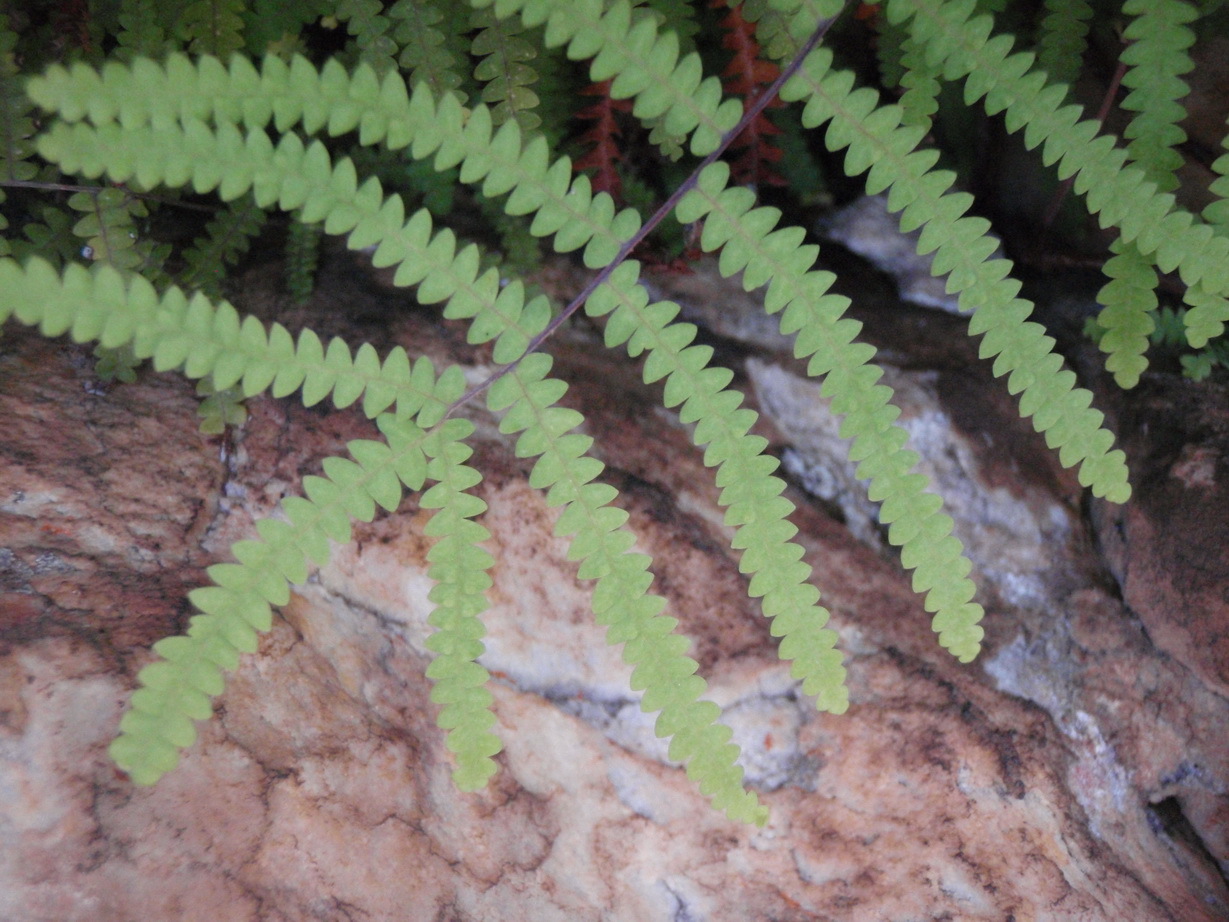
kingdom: Plantae
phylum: Tracheophyta
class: Polypodiopsida
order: Gleicheniales
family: Gleicheniaceae
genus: Gleichenia
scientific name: Gleichenia polypodioides
